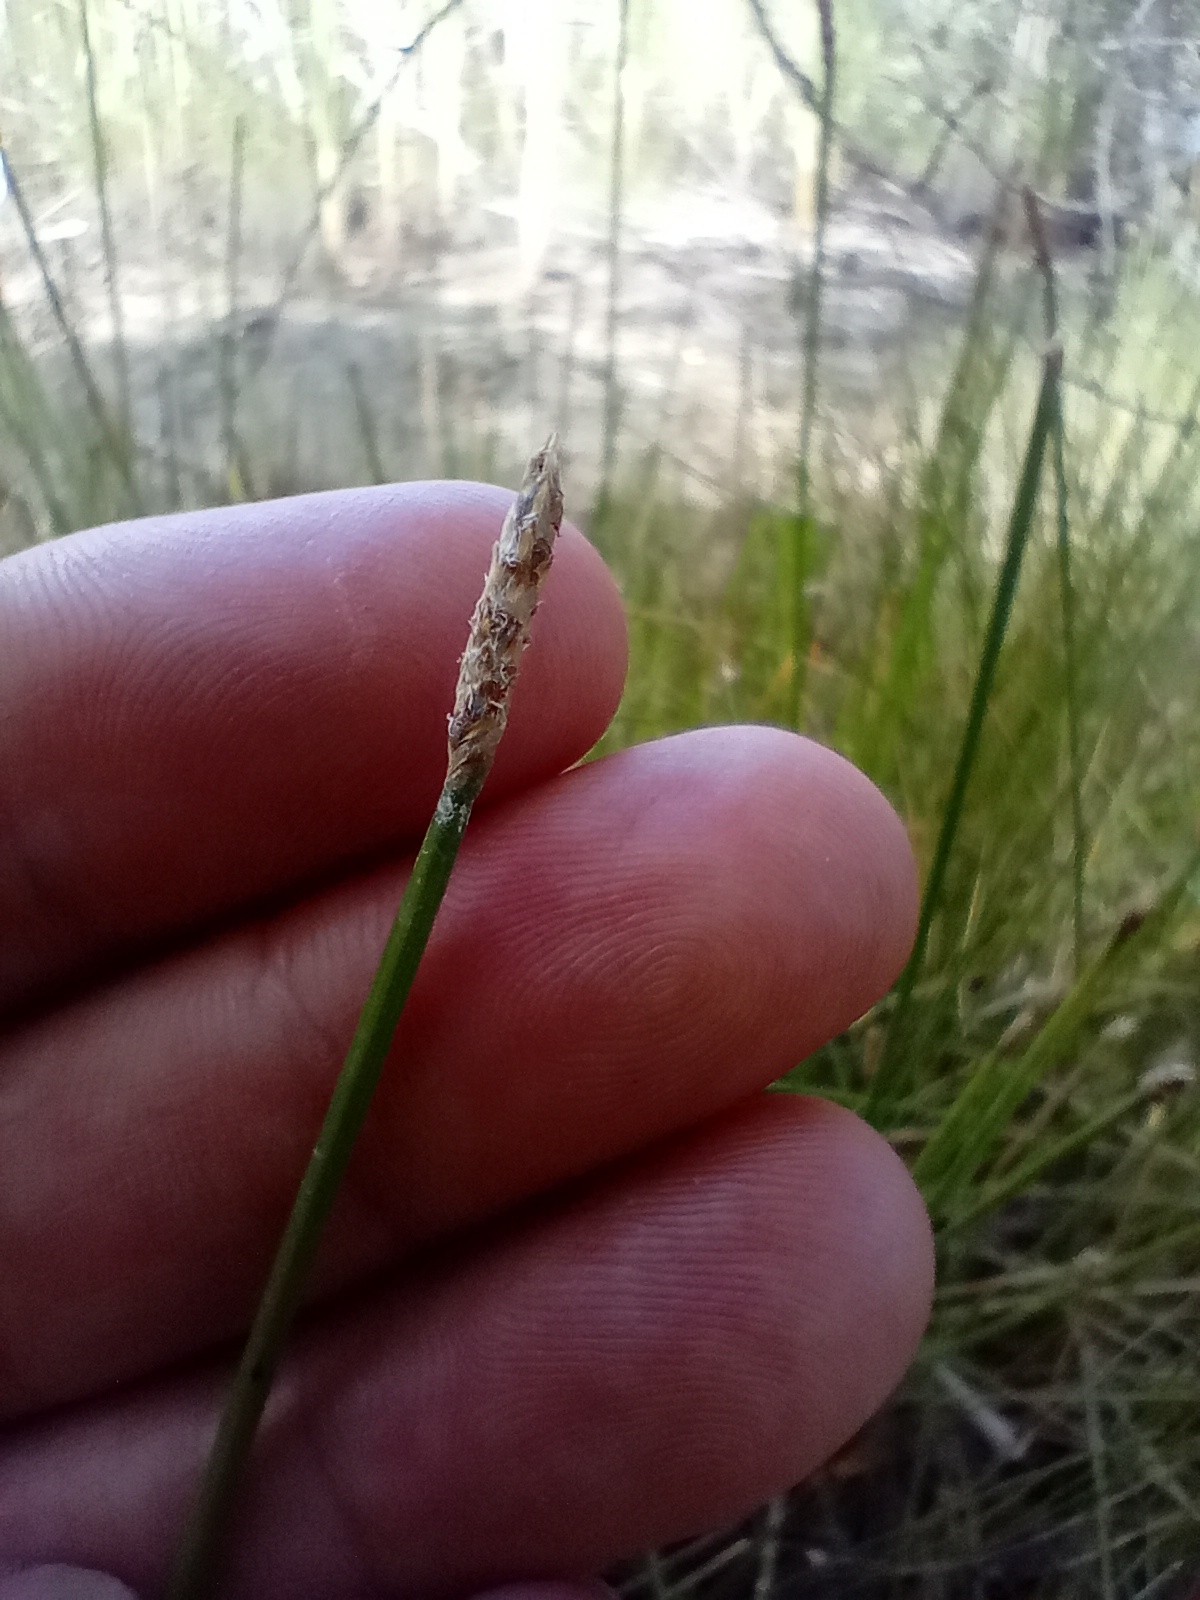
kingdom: Plantae
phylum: Tracheophyta
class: Liliopsida
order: Poales
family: Cyperaceae
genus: Eleocharis
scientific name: Eleocharis acuta
